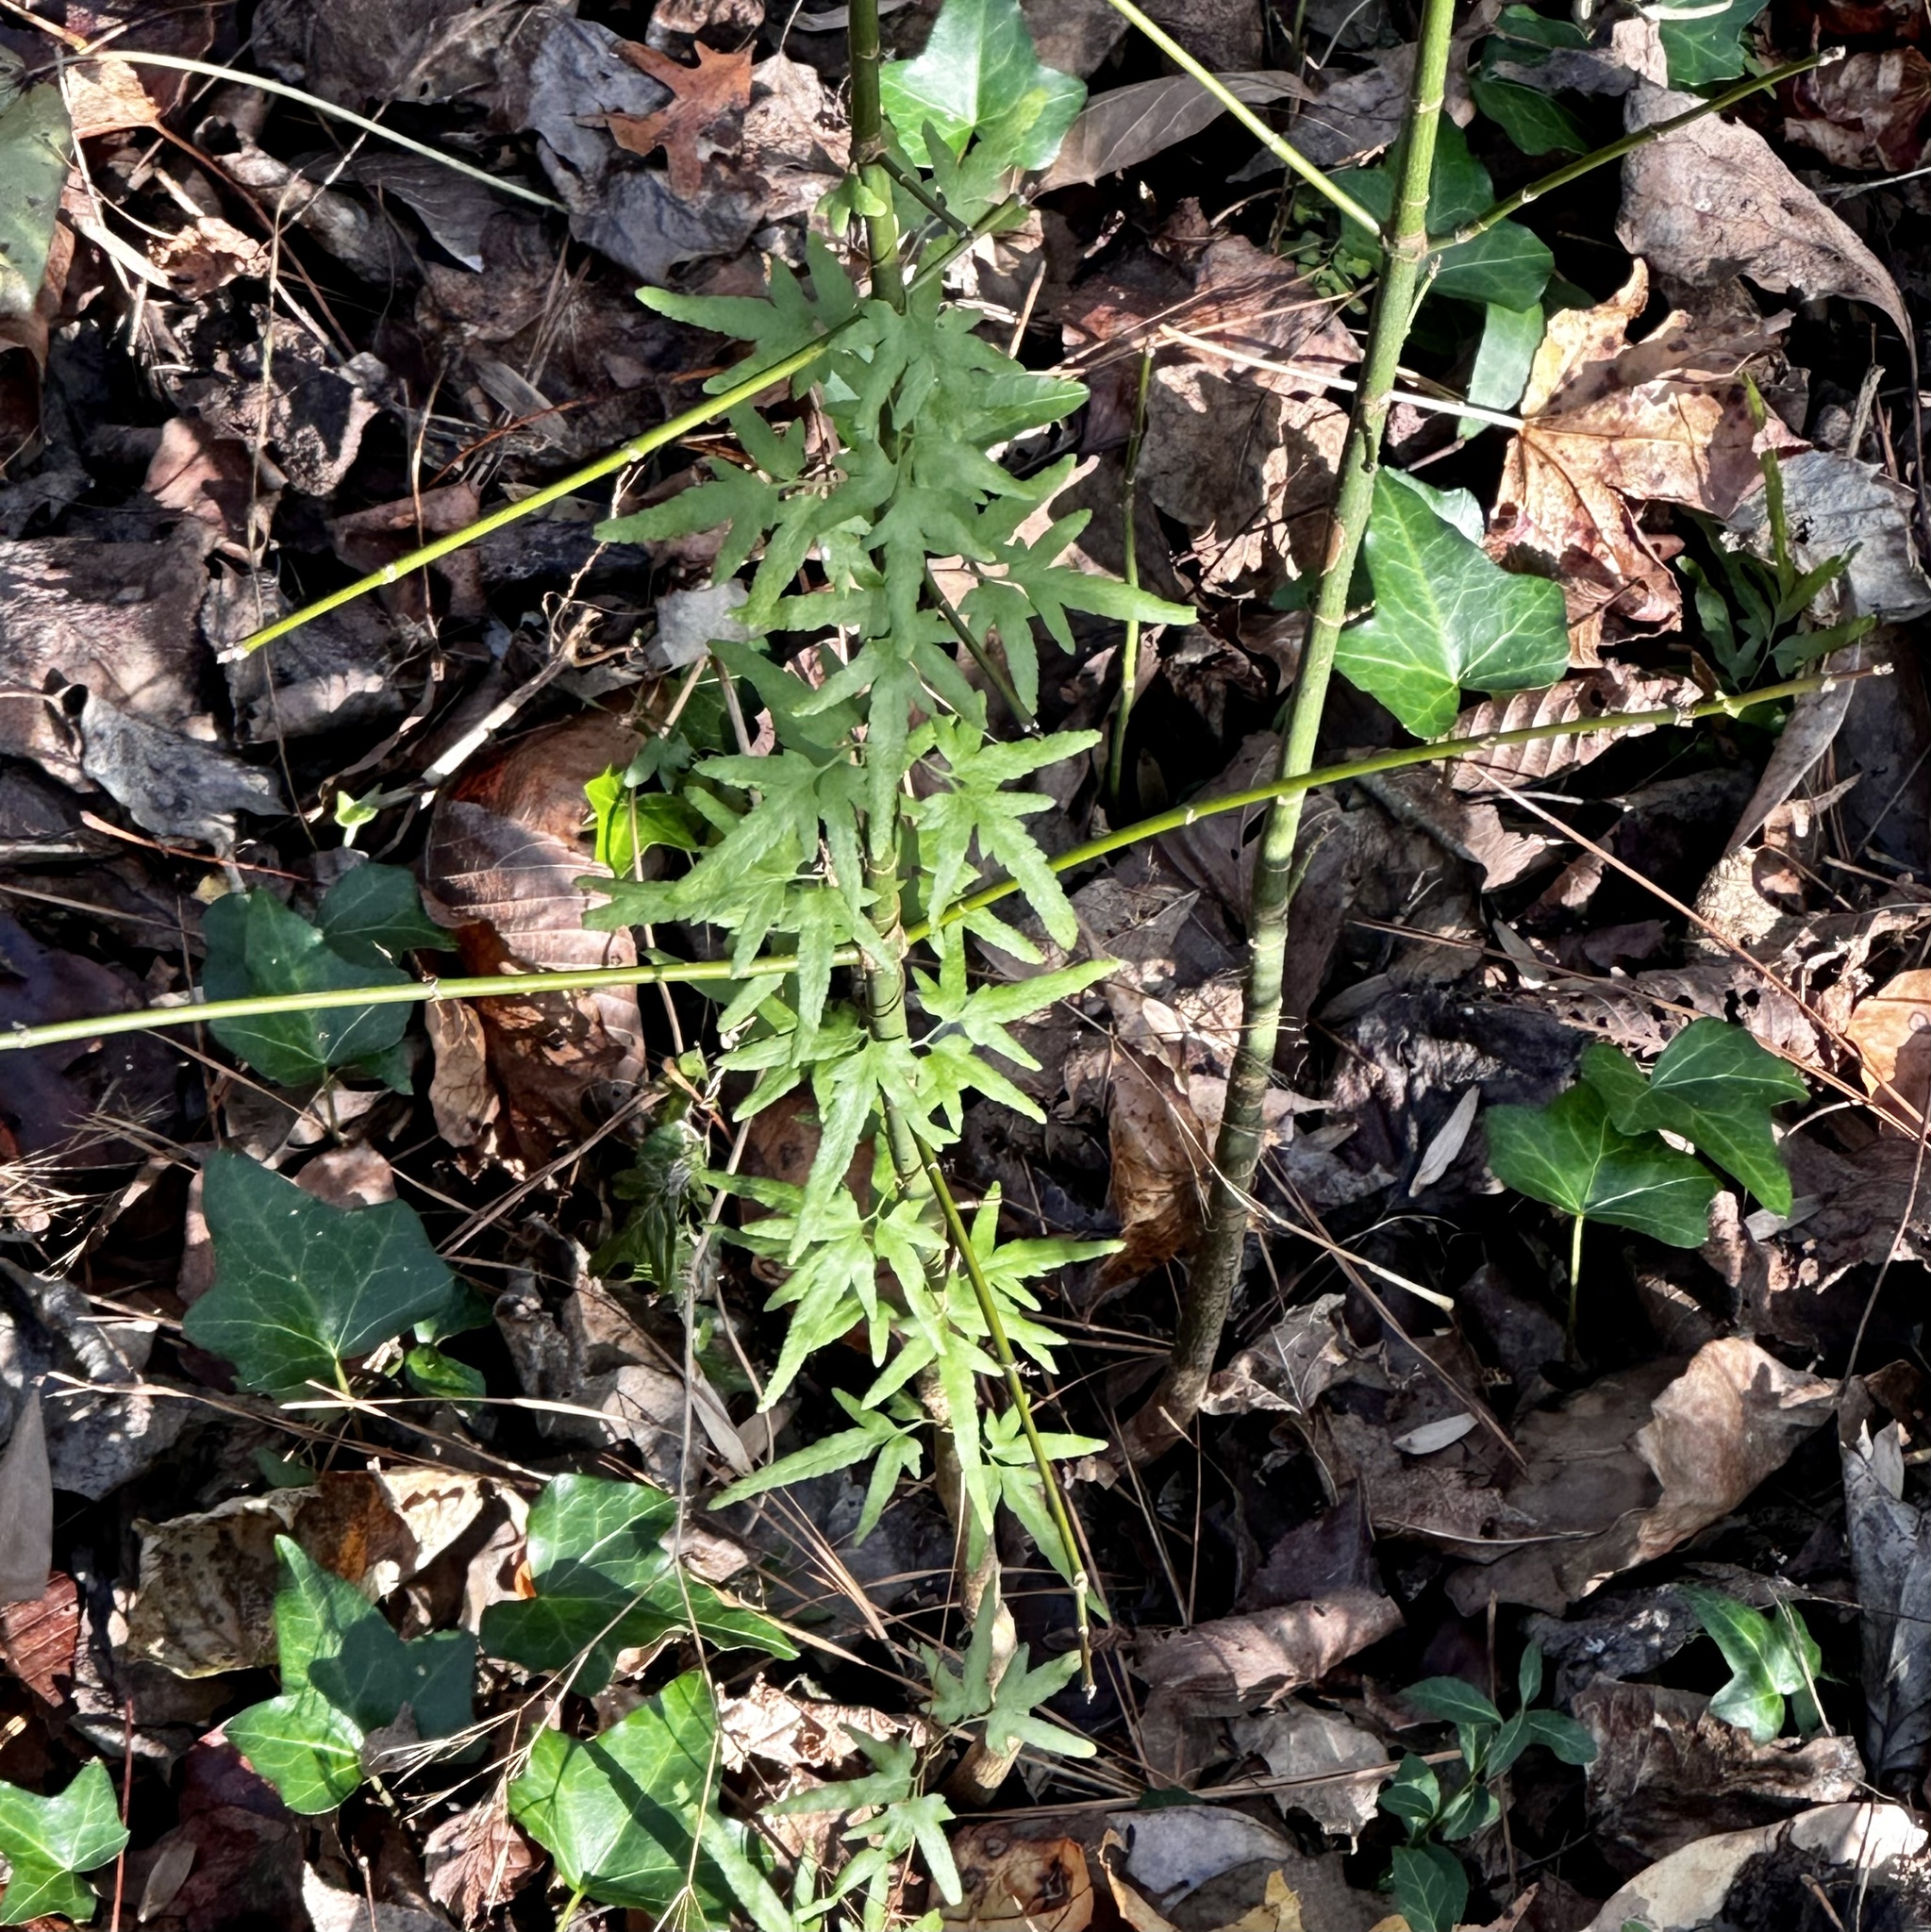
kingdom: Plantae
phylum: Tracheophyta
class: Polypodiopsida
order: Schizaeales
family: Lygodiaceae
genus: Lygodium
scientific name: Lygodium japonicum
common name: Japanese climbing fern
